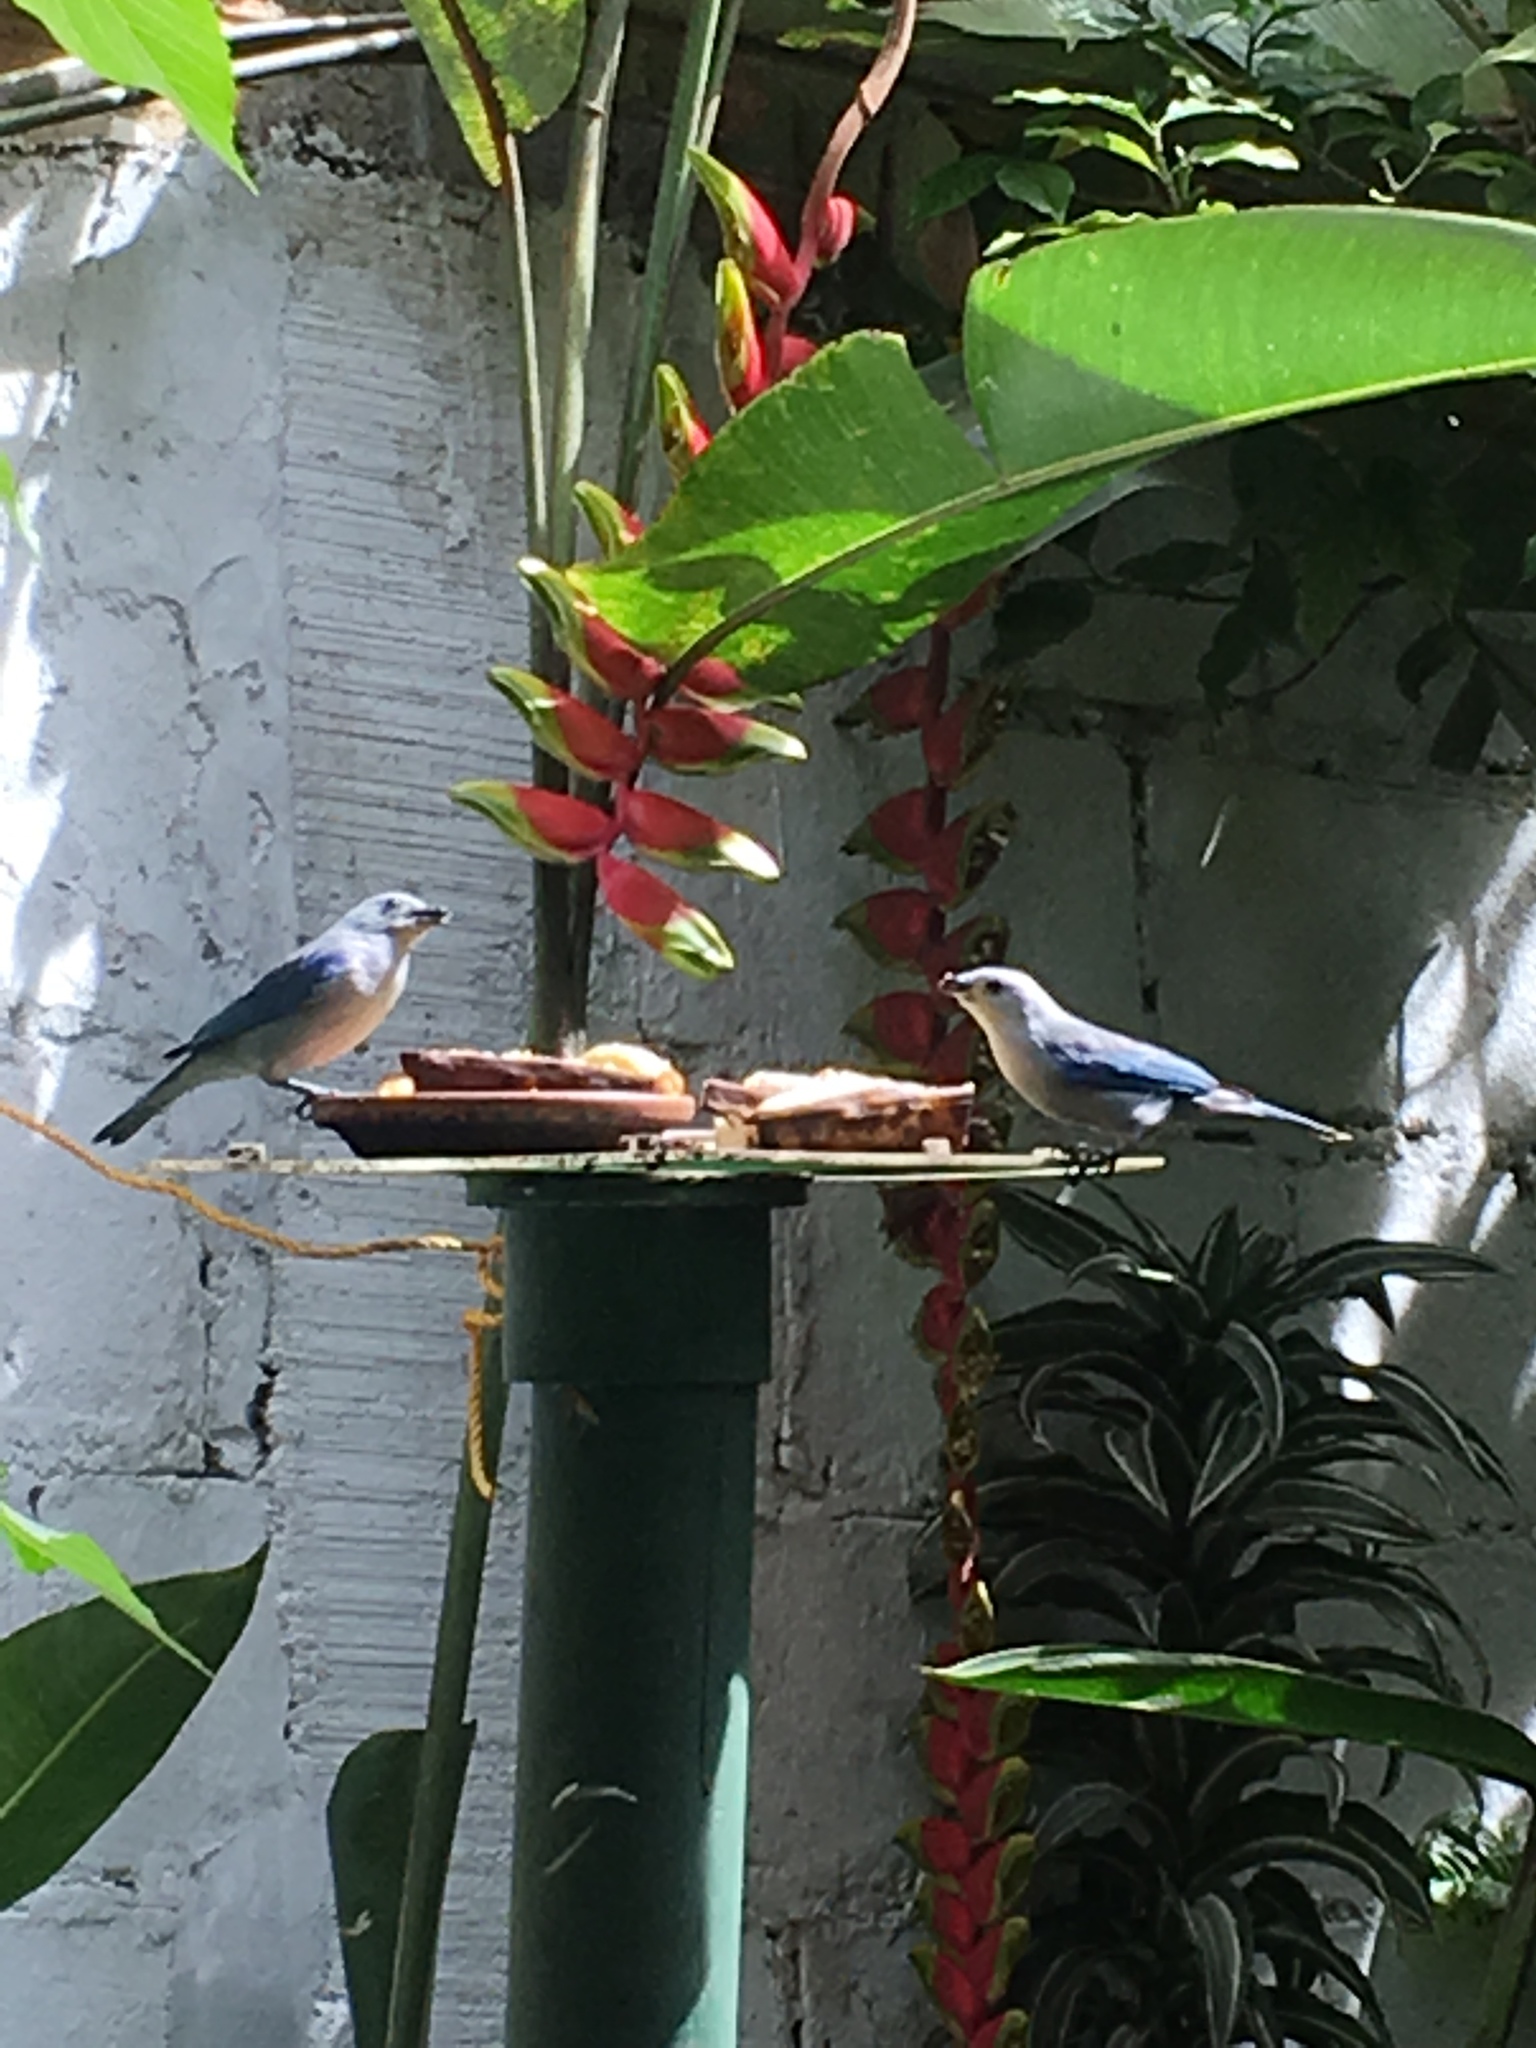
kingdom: Animalia
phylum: Chordata
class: Aves
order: Passeriformes
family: Thraupidae
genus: Thraupis
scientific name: Thraupis episcopus
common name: Blue-grey tanager
